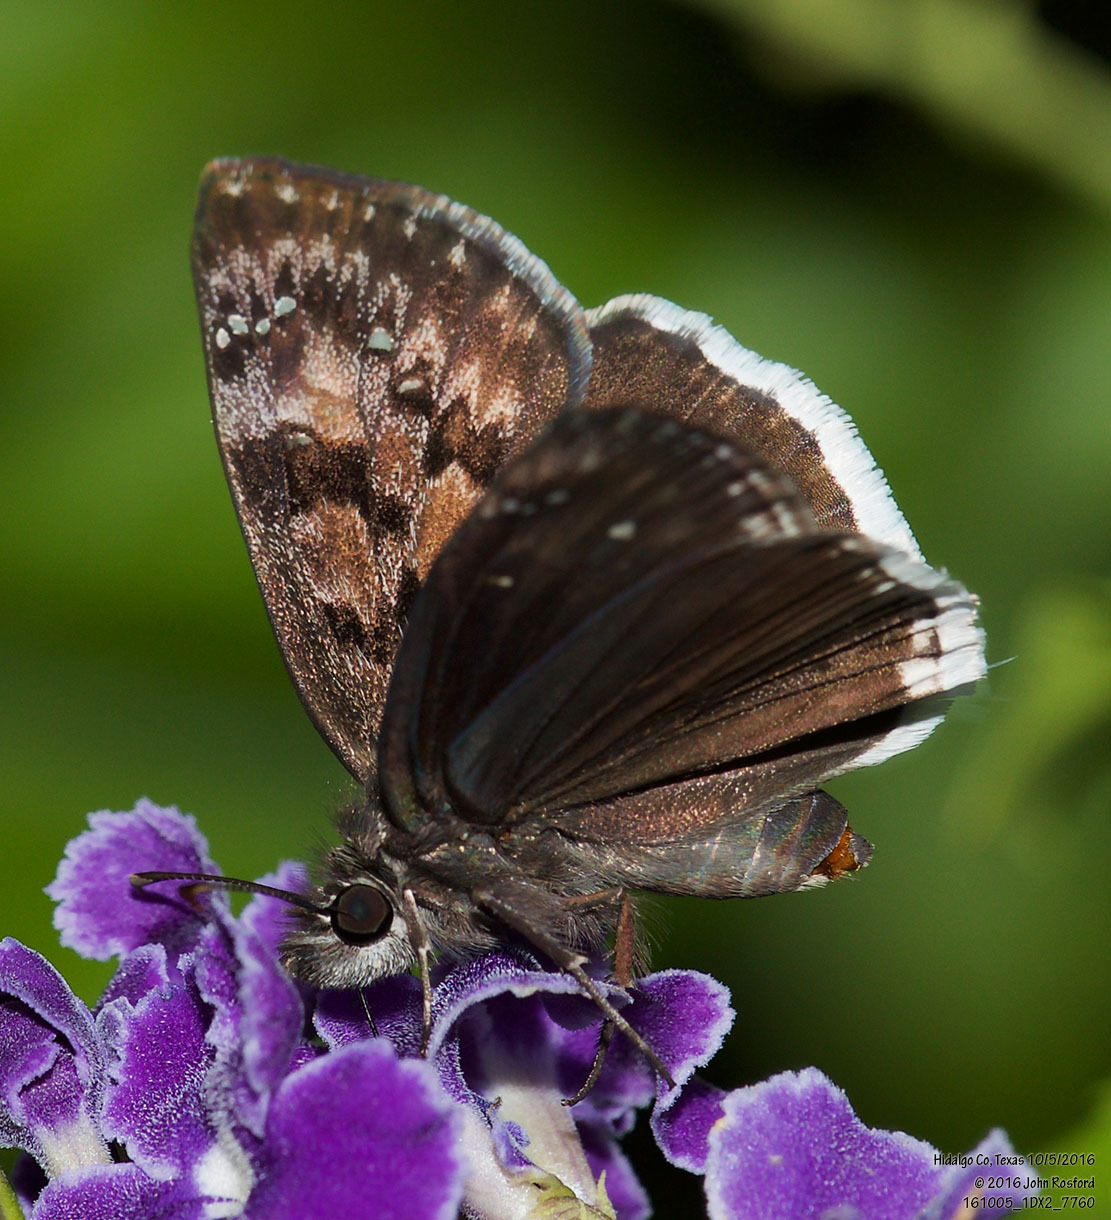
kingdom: Animalia
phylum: Arthropoda
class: Insecta
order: Lepidoptera
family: Hesperiidae
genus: Erynnis
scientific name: Erynnis tristis
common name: Mournful duskywing
